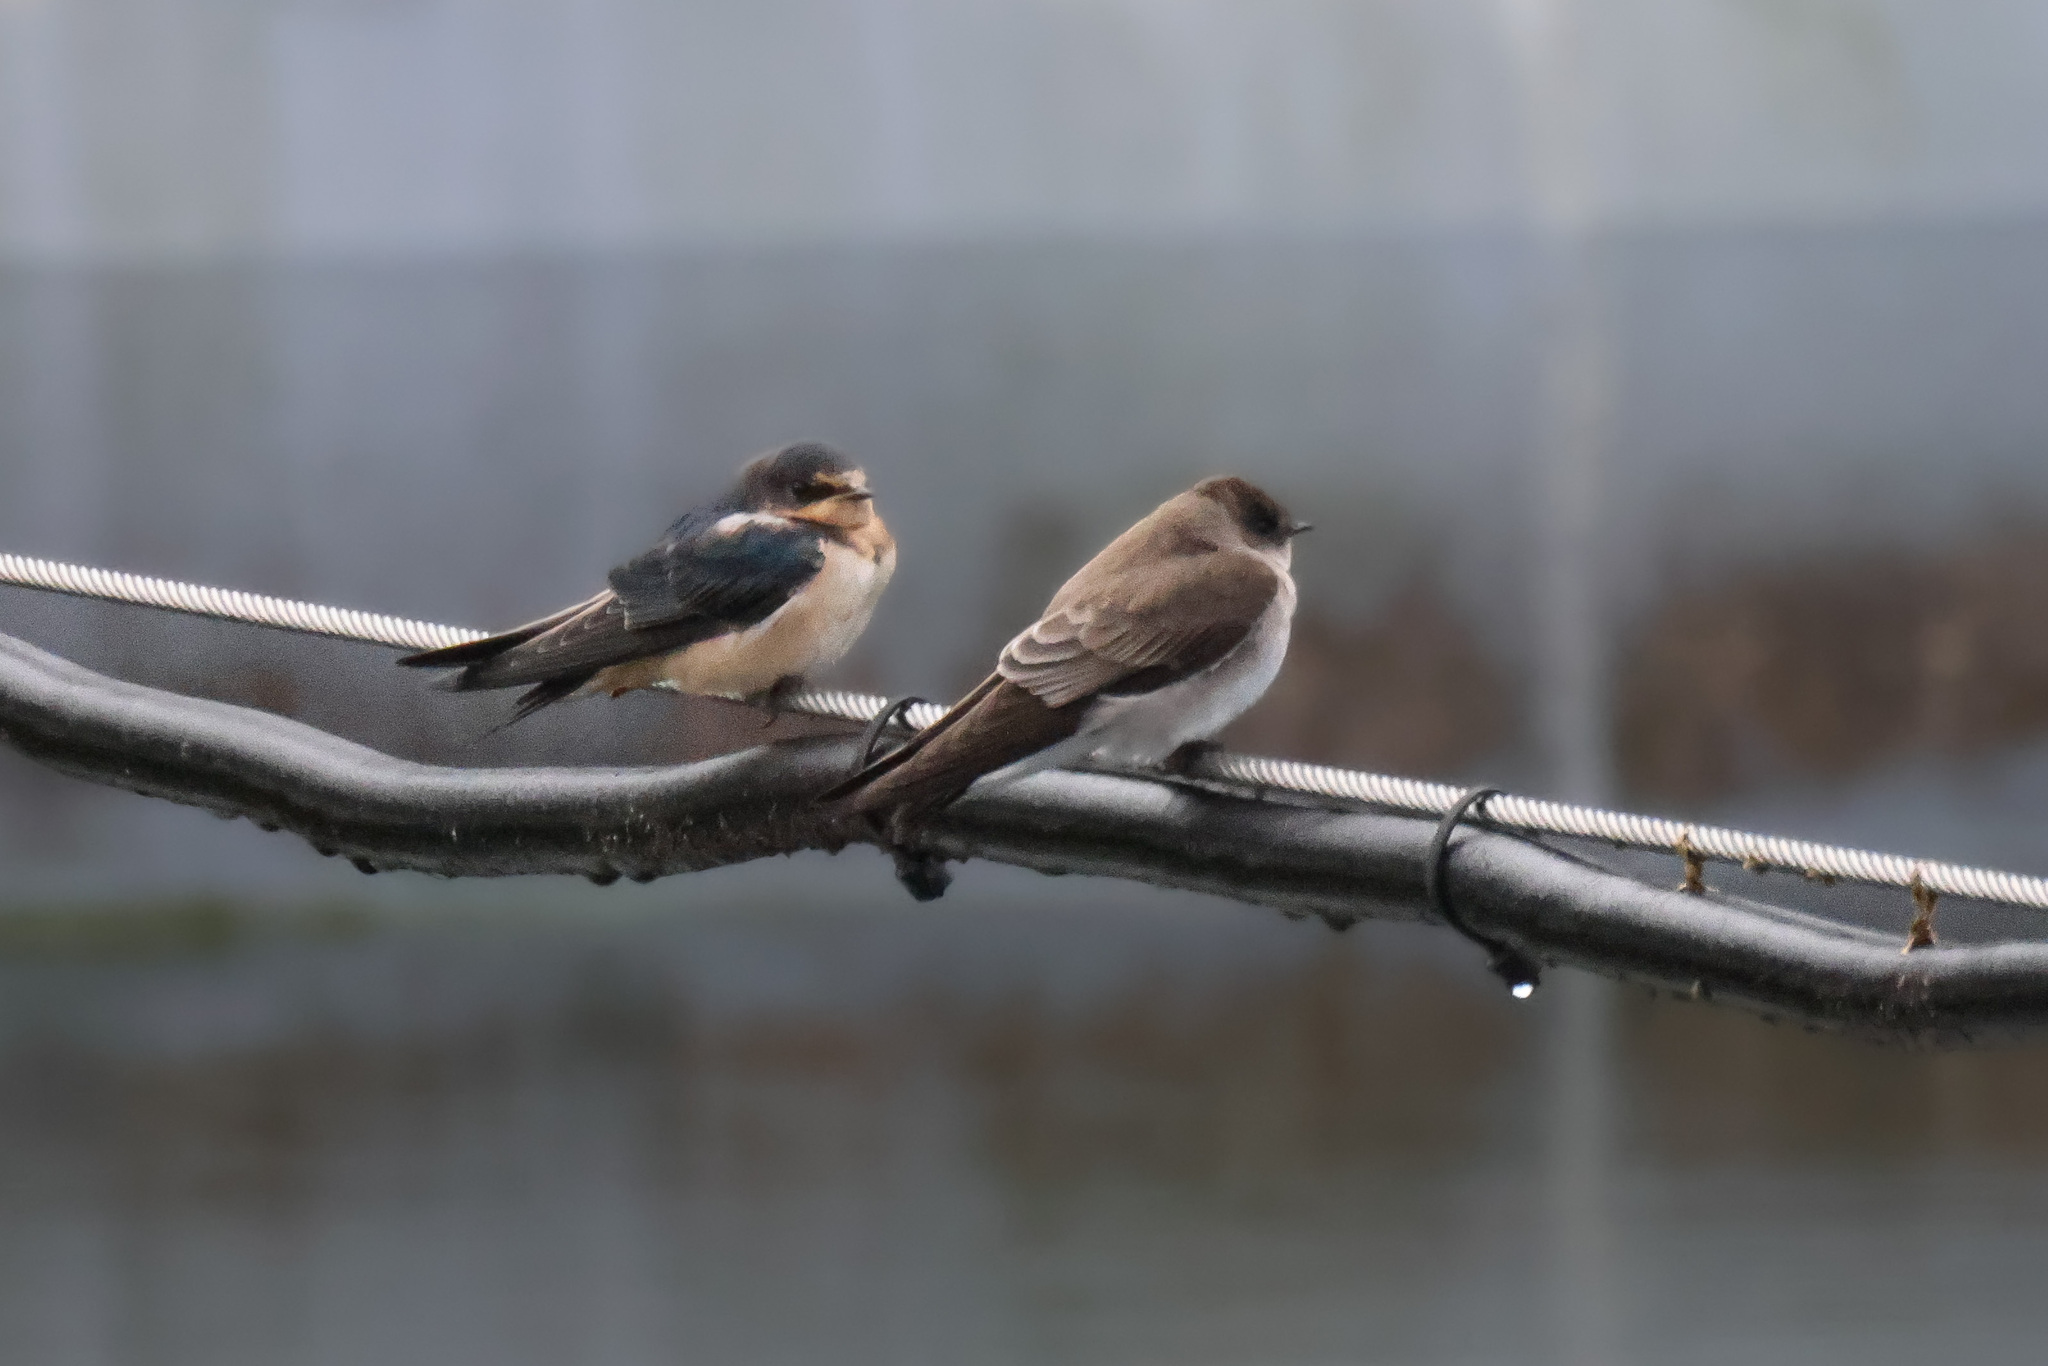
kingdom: Animalia
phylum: Chordata
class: Aves
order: Passeriformes
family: Hirundinidae
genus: Stelgidopteryx
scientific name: Stelgidopteryx serripennis
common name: Northern rough-winged swallow
